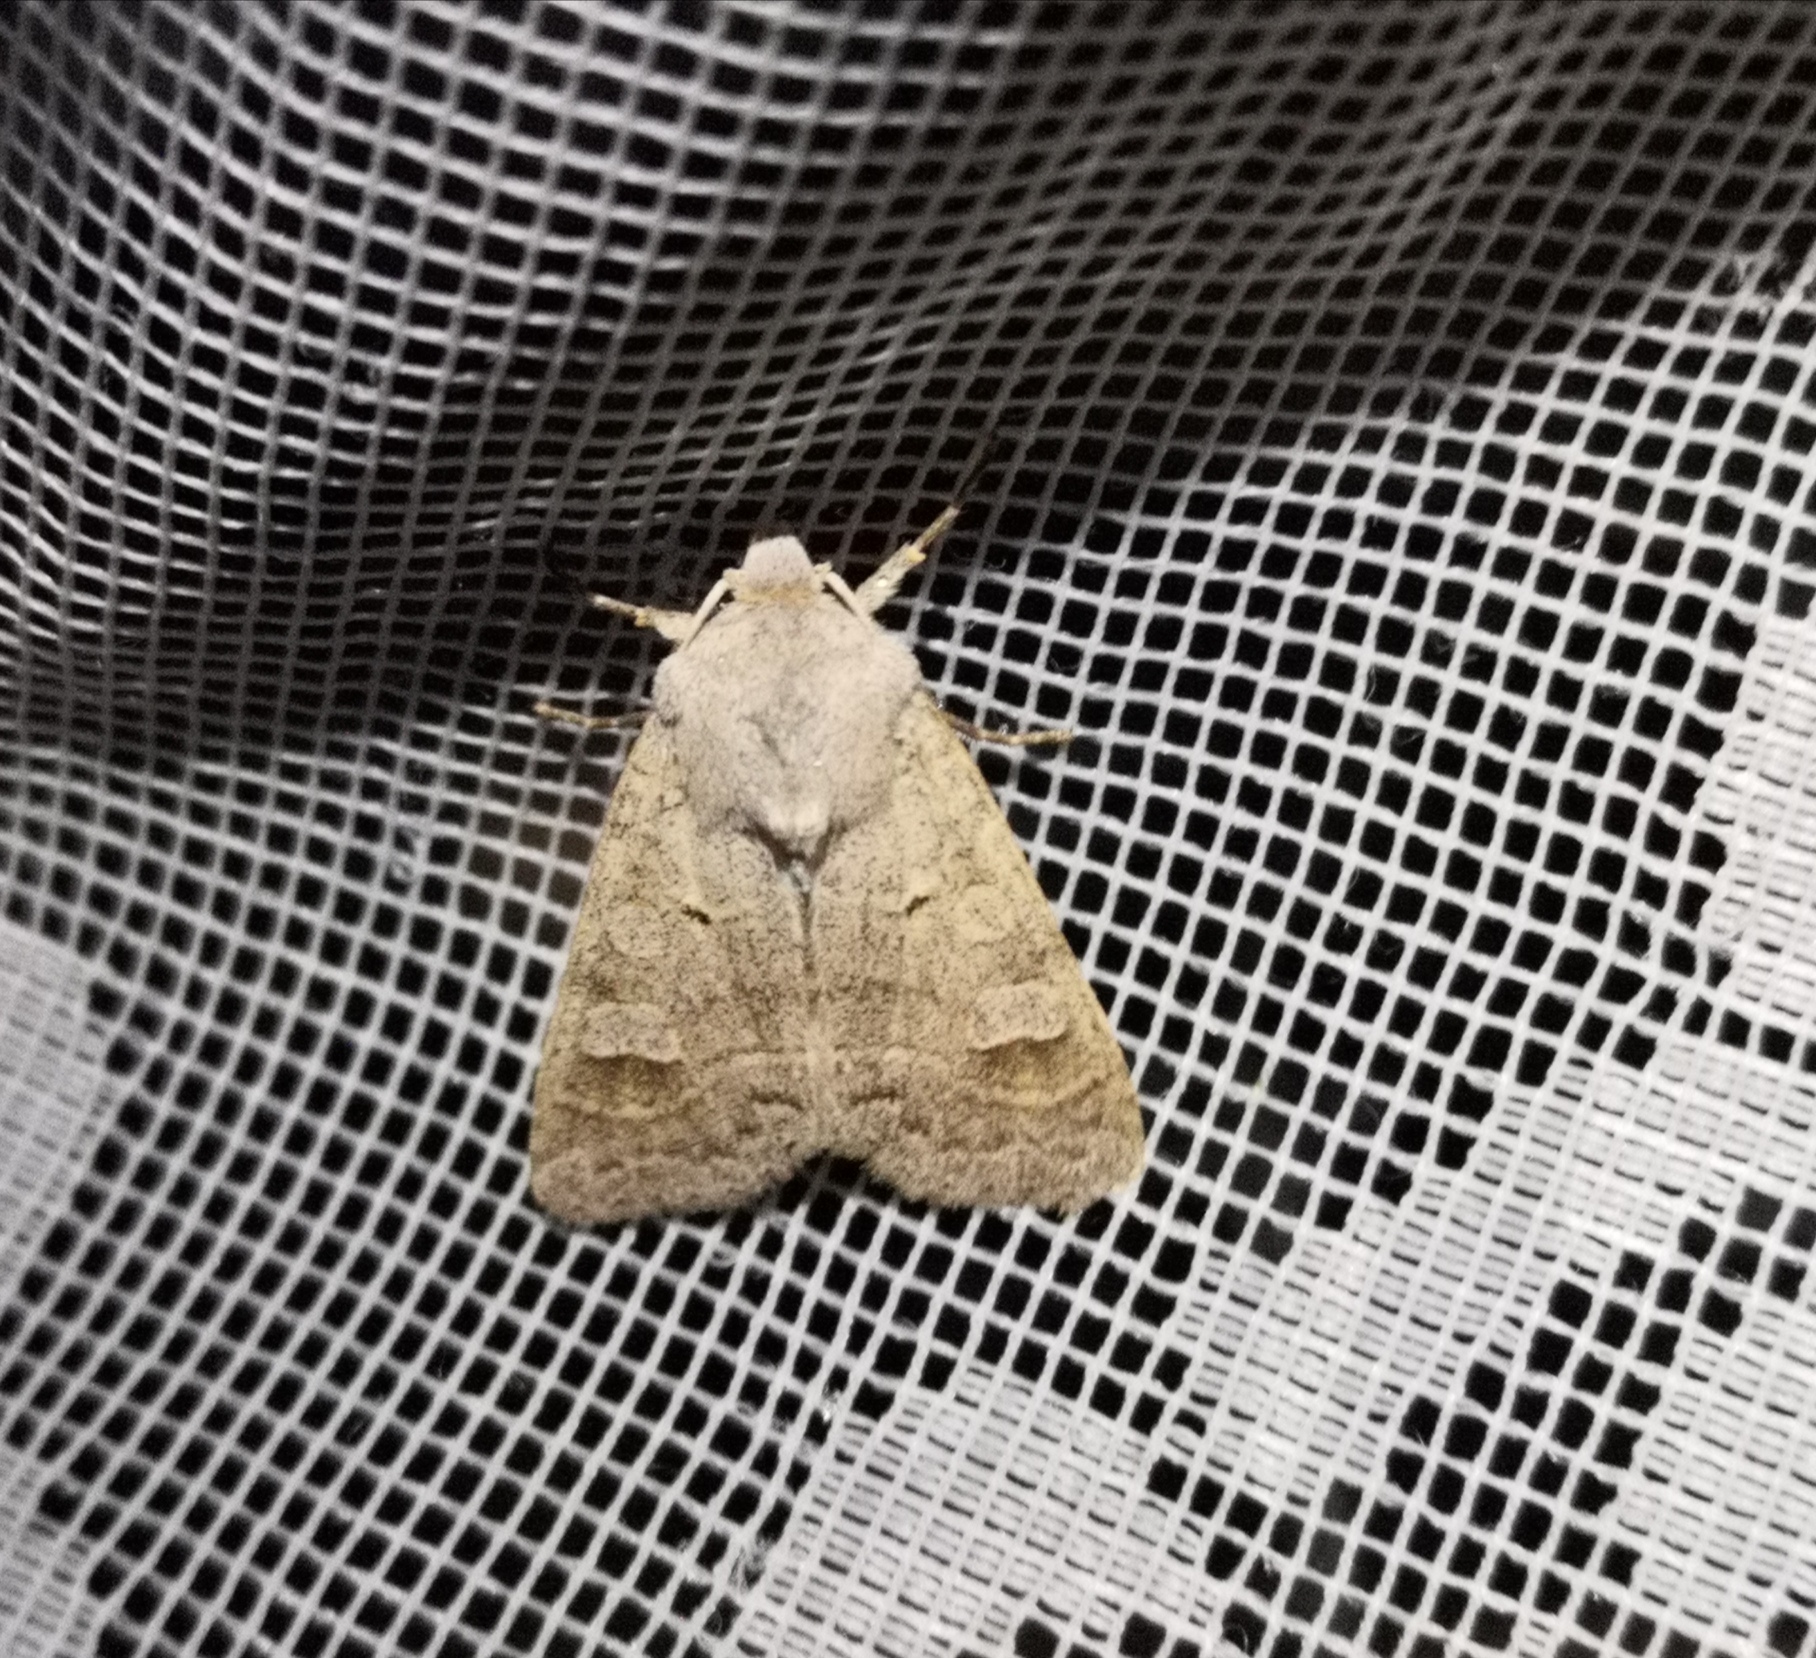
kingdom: Animalia
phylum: Arthropoda
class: Insecta
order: Lepidoptera
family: Noctuidae
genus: Ammoconia
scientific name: Ammoconia caecimacula
